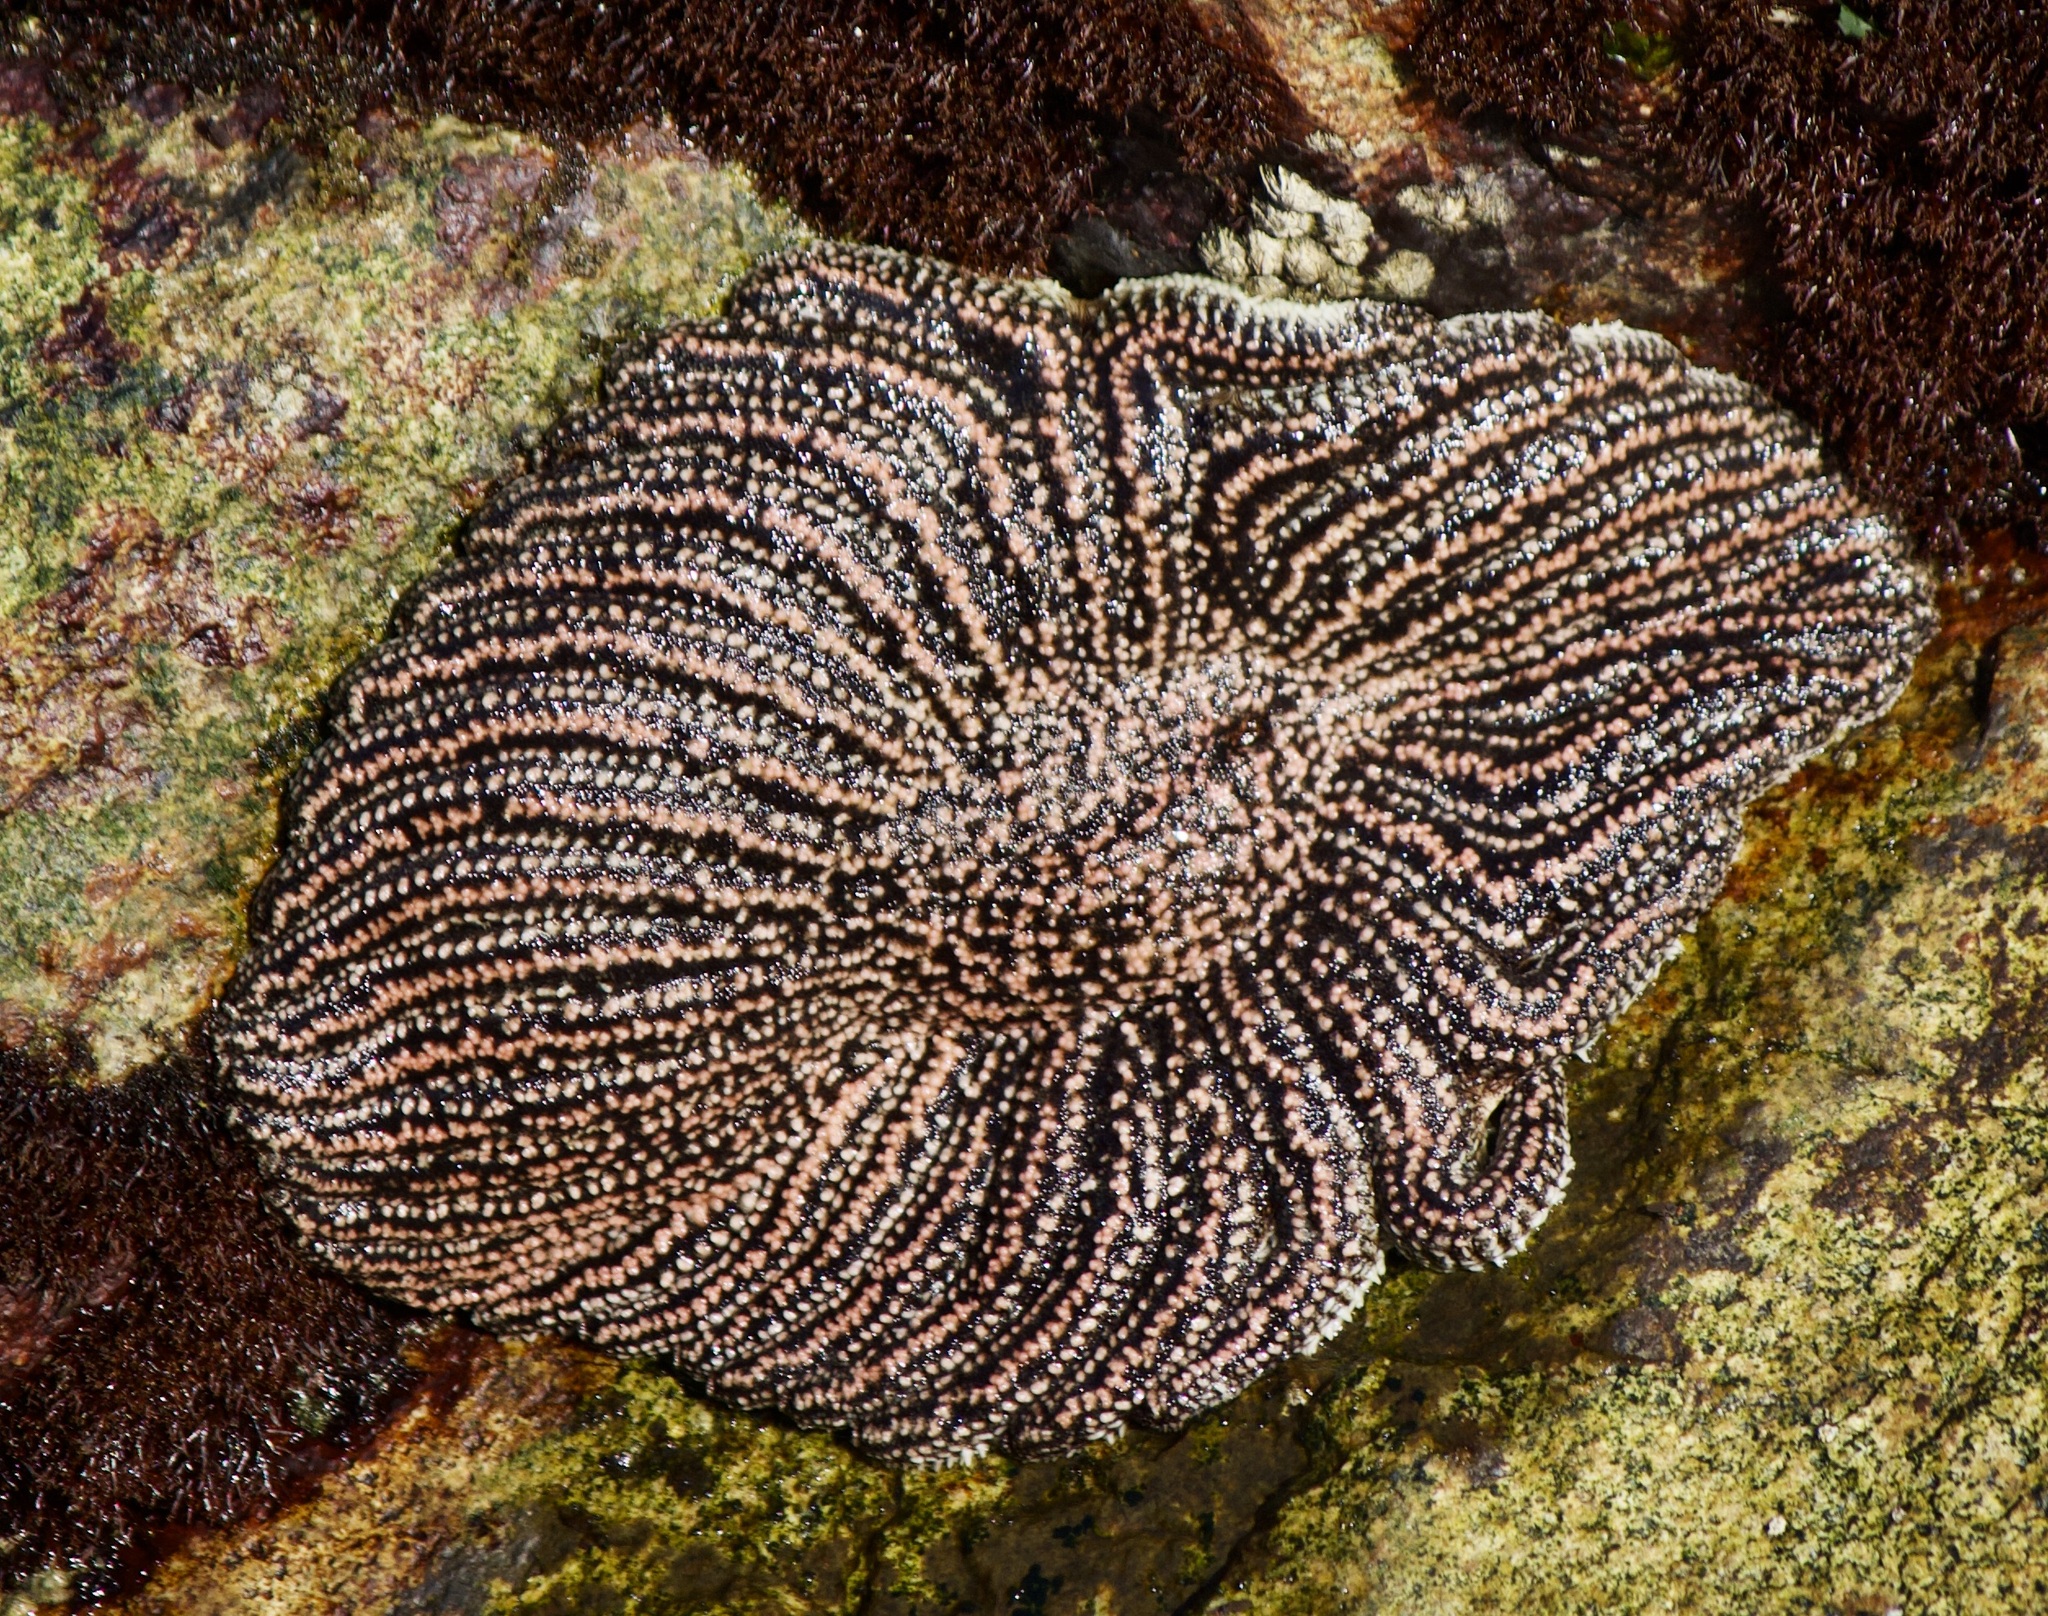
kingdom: Animalia
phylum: Echinodermata
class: Asteroidea
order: Forcipulatida
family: Heliasteridae
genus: Heliaster
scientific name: Heliaster helianthus
